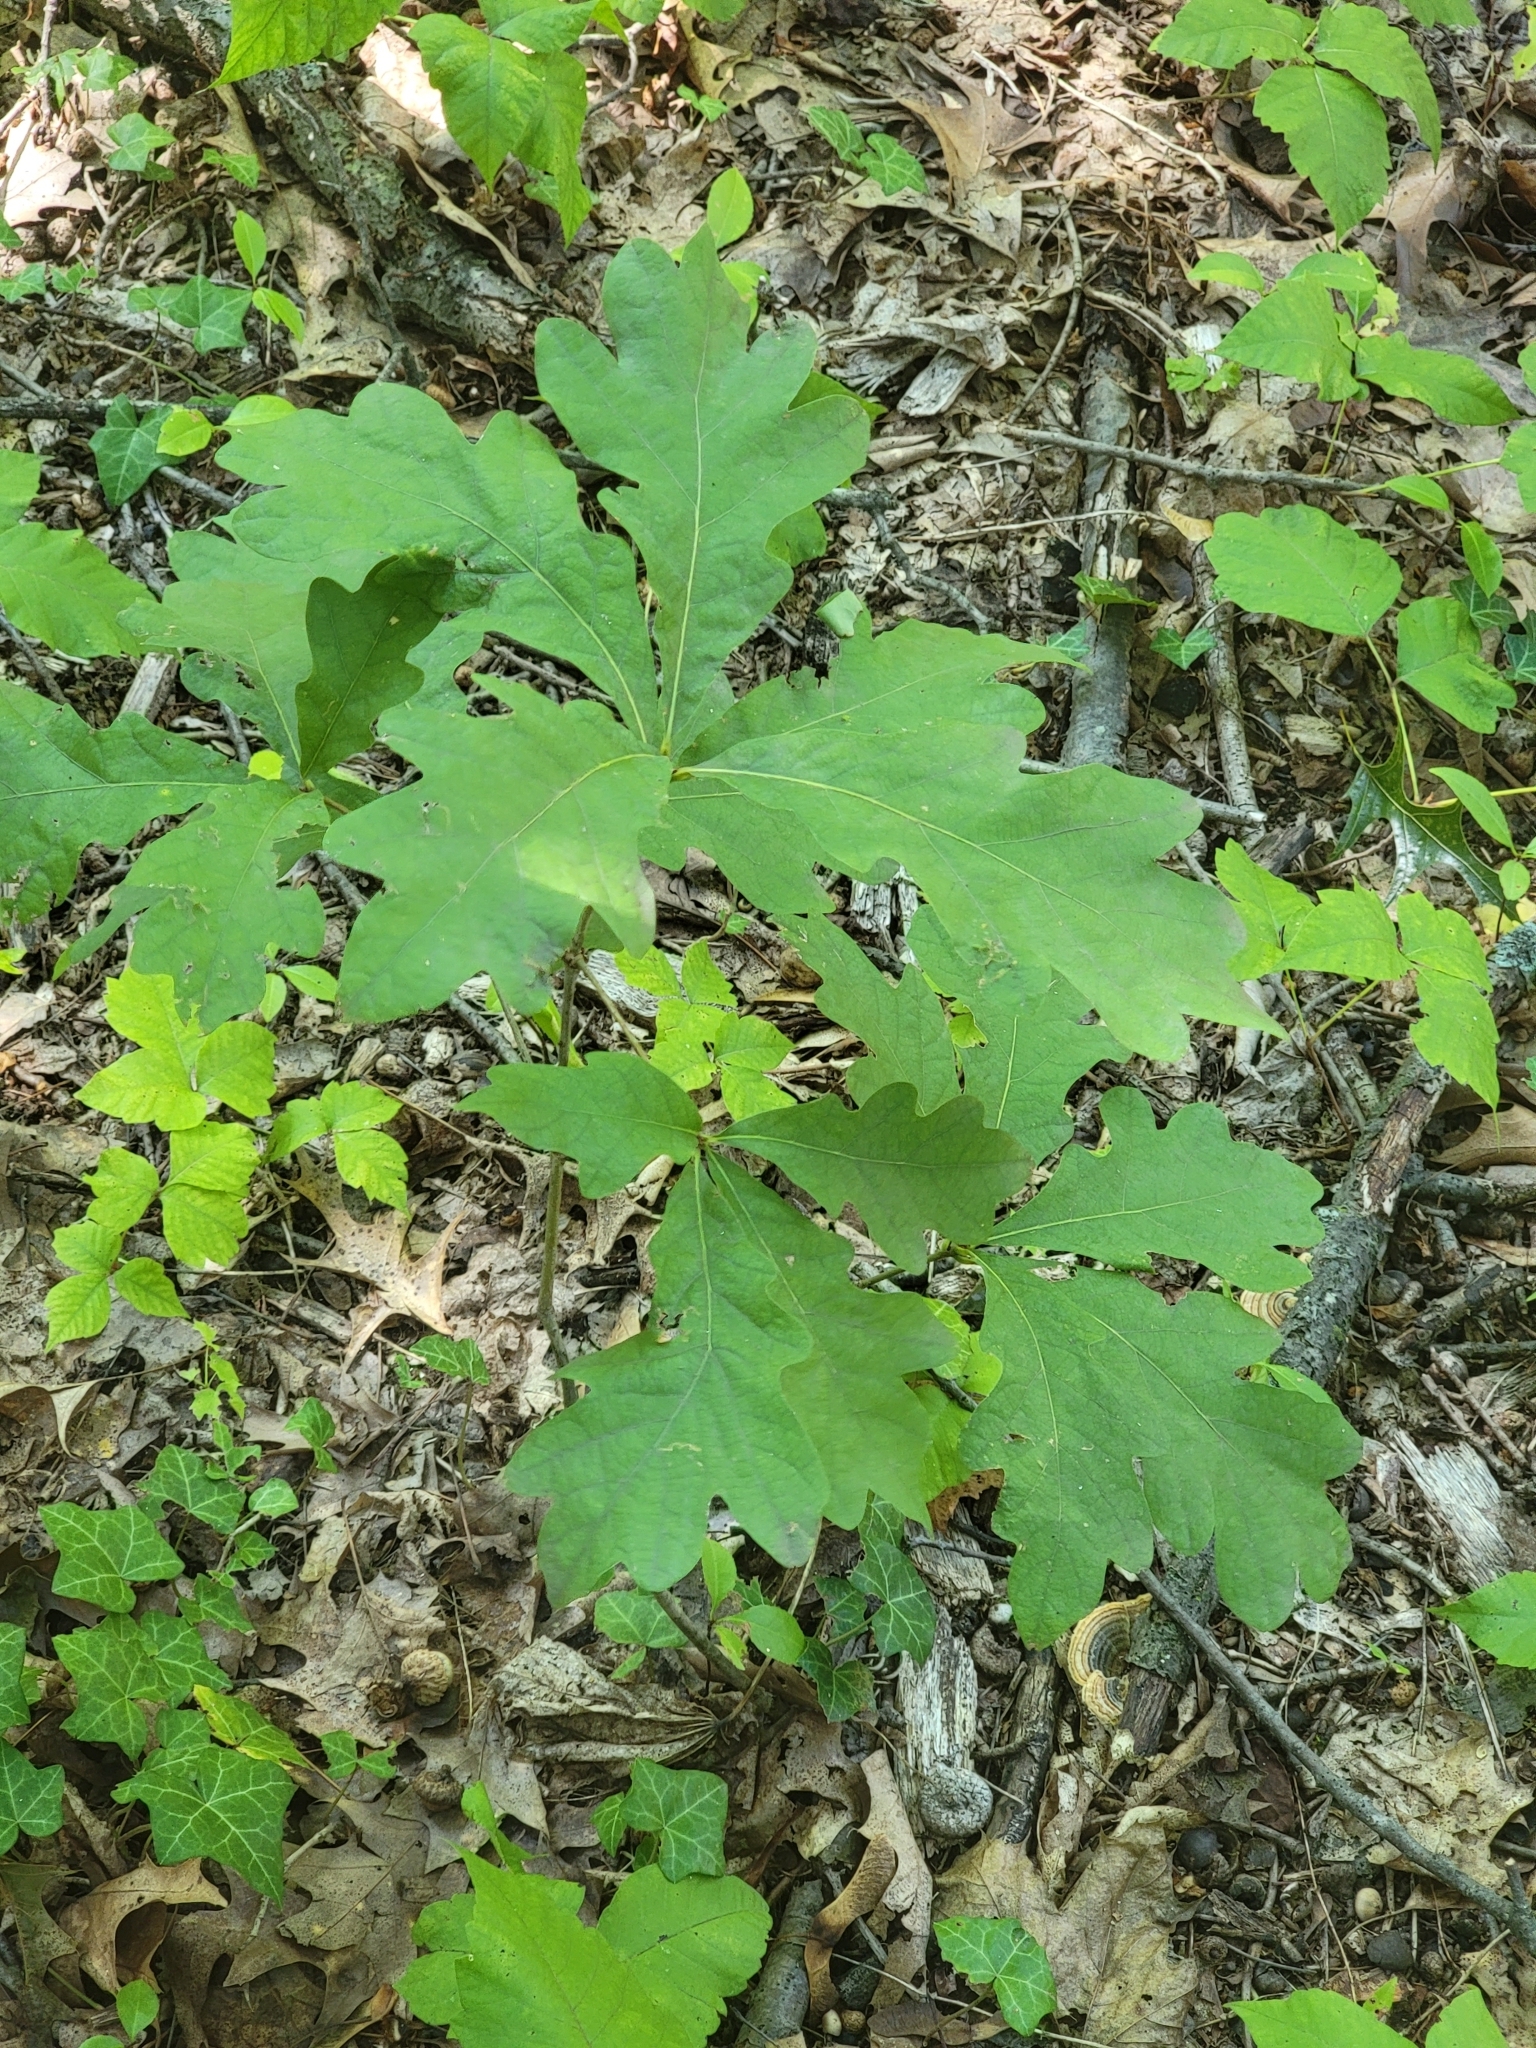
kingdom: Plantae
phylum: Tracheophyta
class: Magnoliopsida
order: Fagales
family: Fagaceae
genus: Quercus
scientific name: Quercus alba
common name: White oak
